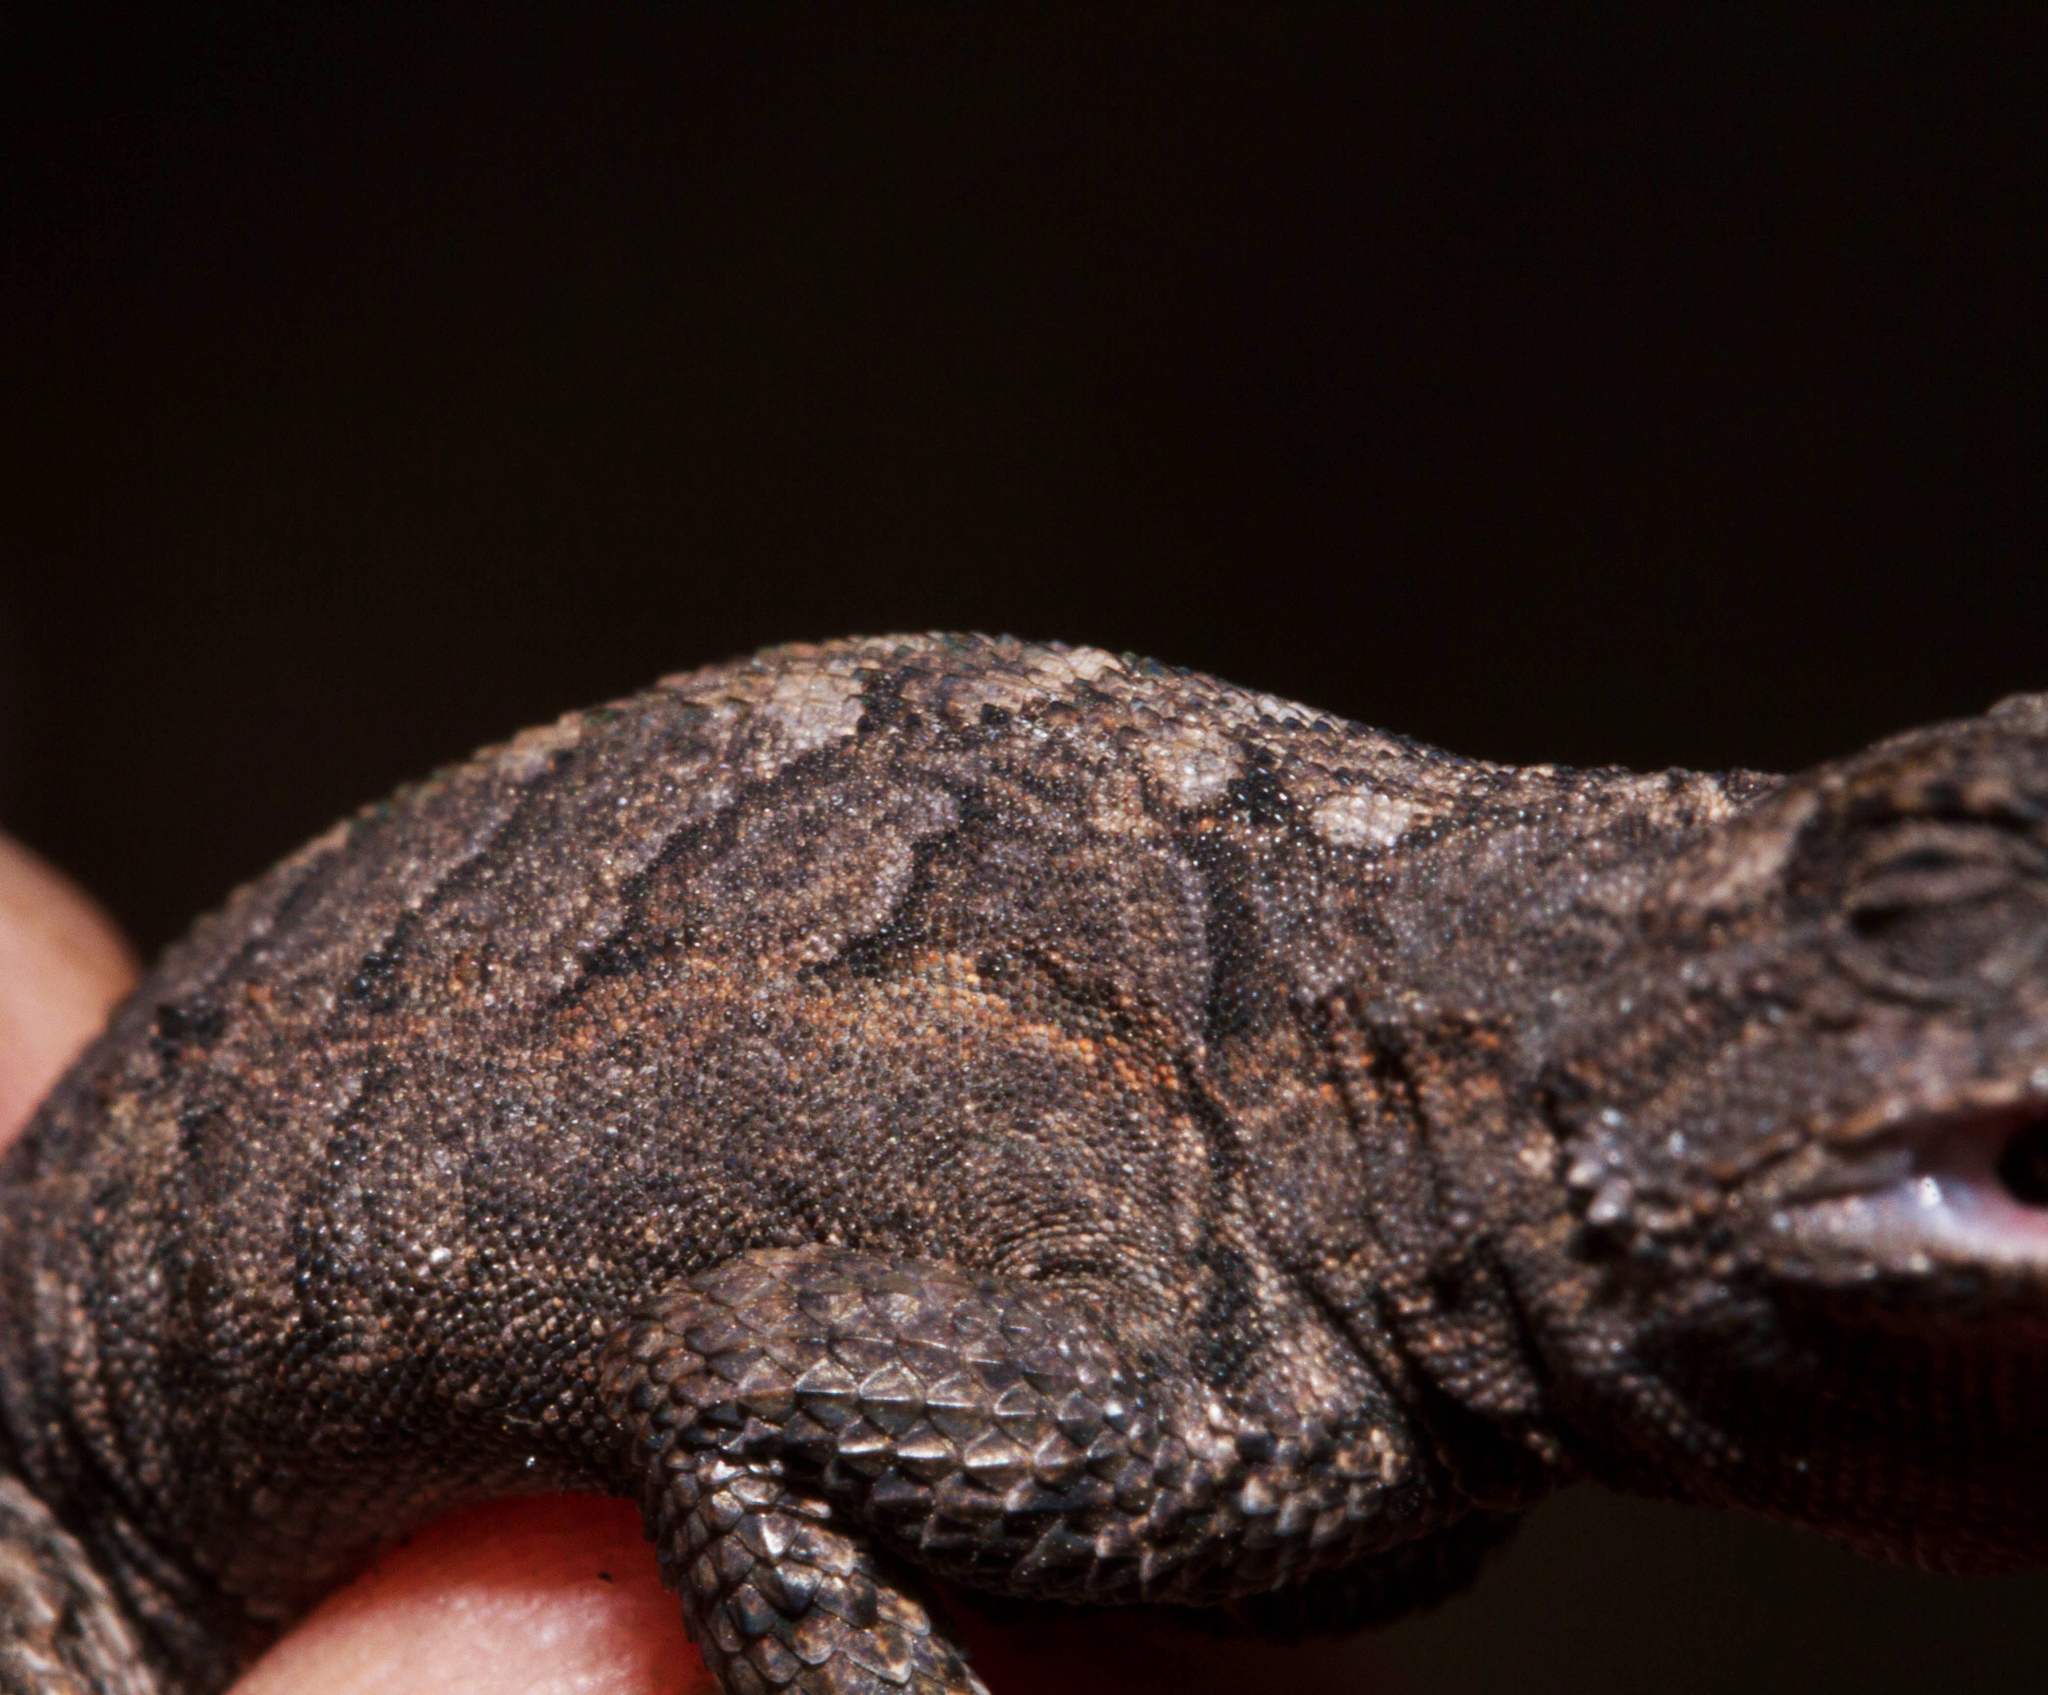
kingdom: Animalia
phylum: Chordata
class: Squamata
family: Phrynosomatidae
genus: Urosaurus
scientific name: Urosaurus ornatus
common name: Ornate tree lizard
